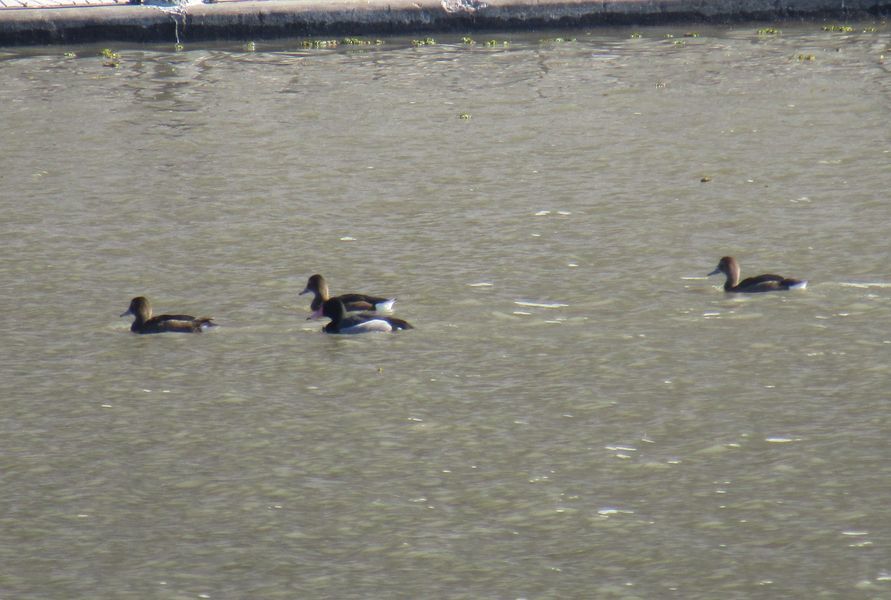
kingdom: Animalia
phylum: Chordata
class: Aves
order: Anseriformes
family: Anatidae
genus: Netta
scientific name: Netta peposaca
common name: Rosy-billed pochard
